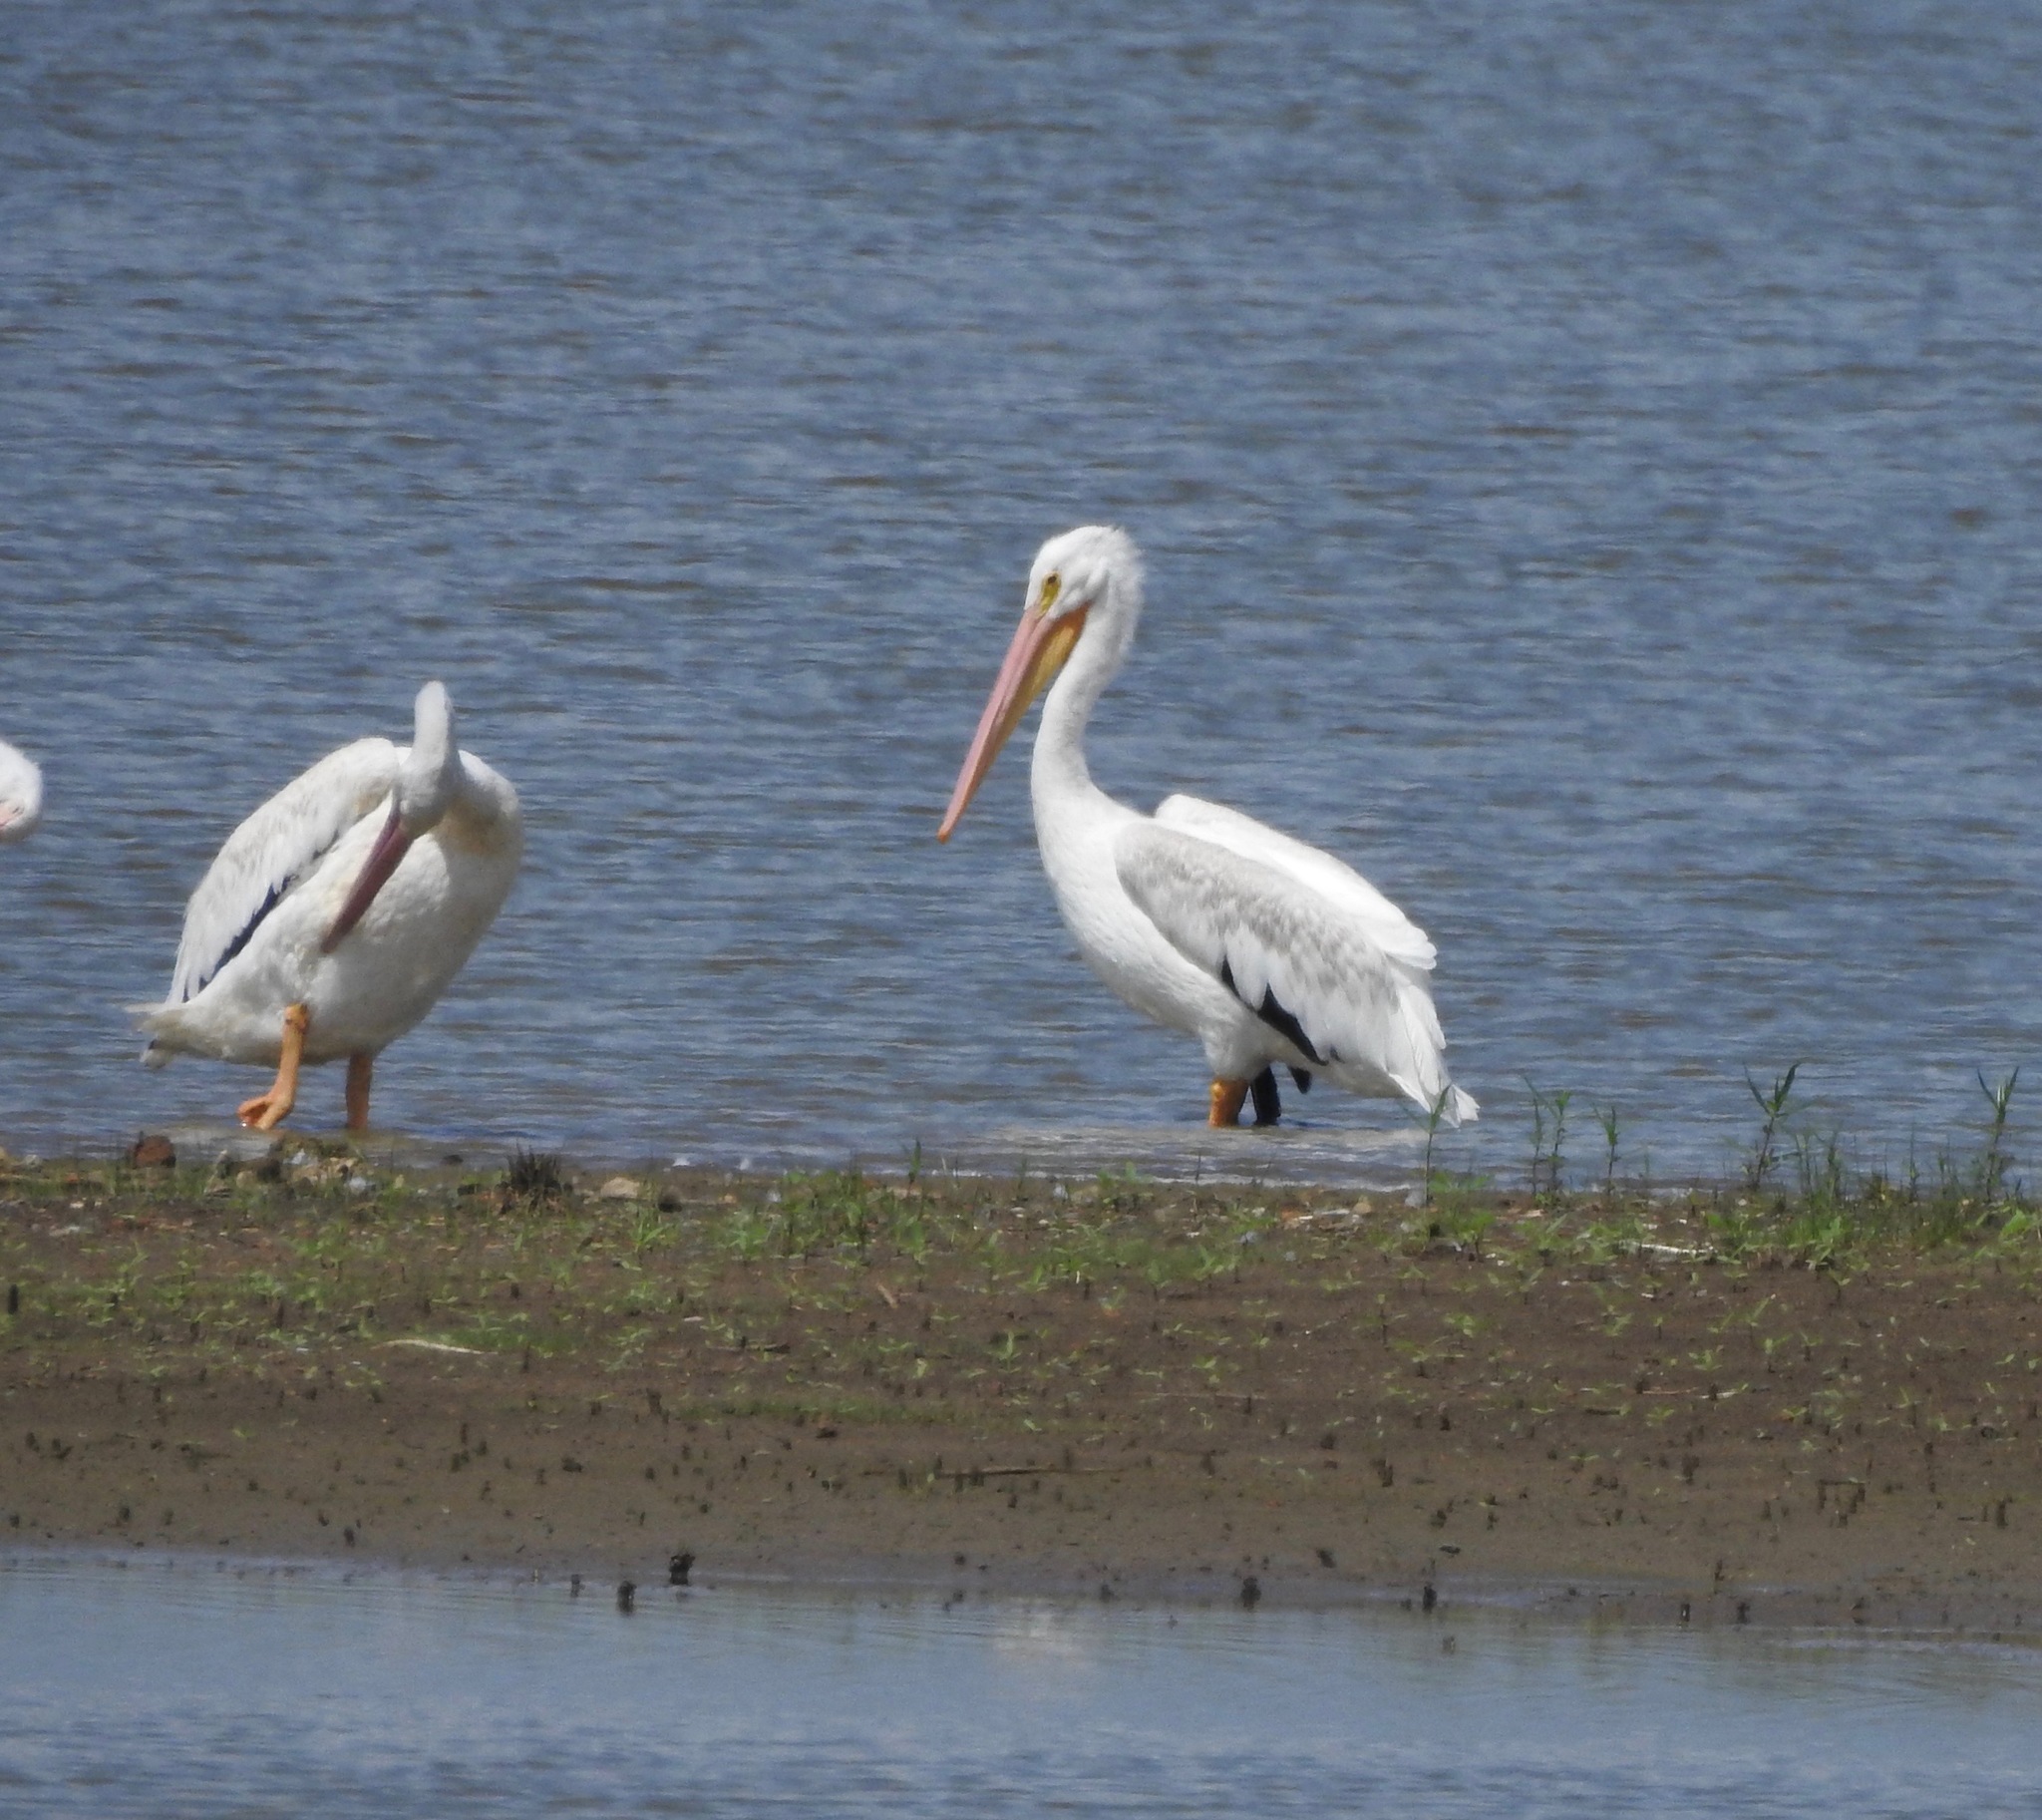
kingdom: Animalia
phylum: Chordata
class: Aves
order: Pelecaniformes
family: Pelecanidae
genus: Pelecanus
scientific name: Pelecanus erythrorhynchos
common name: American white pelican
